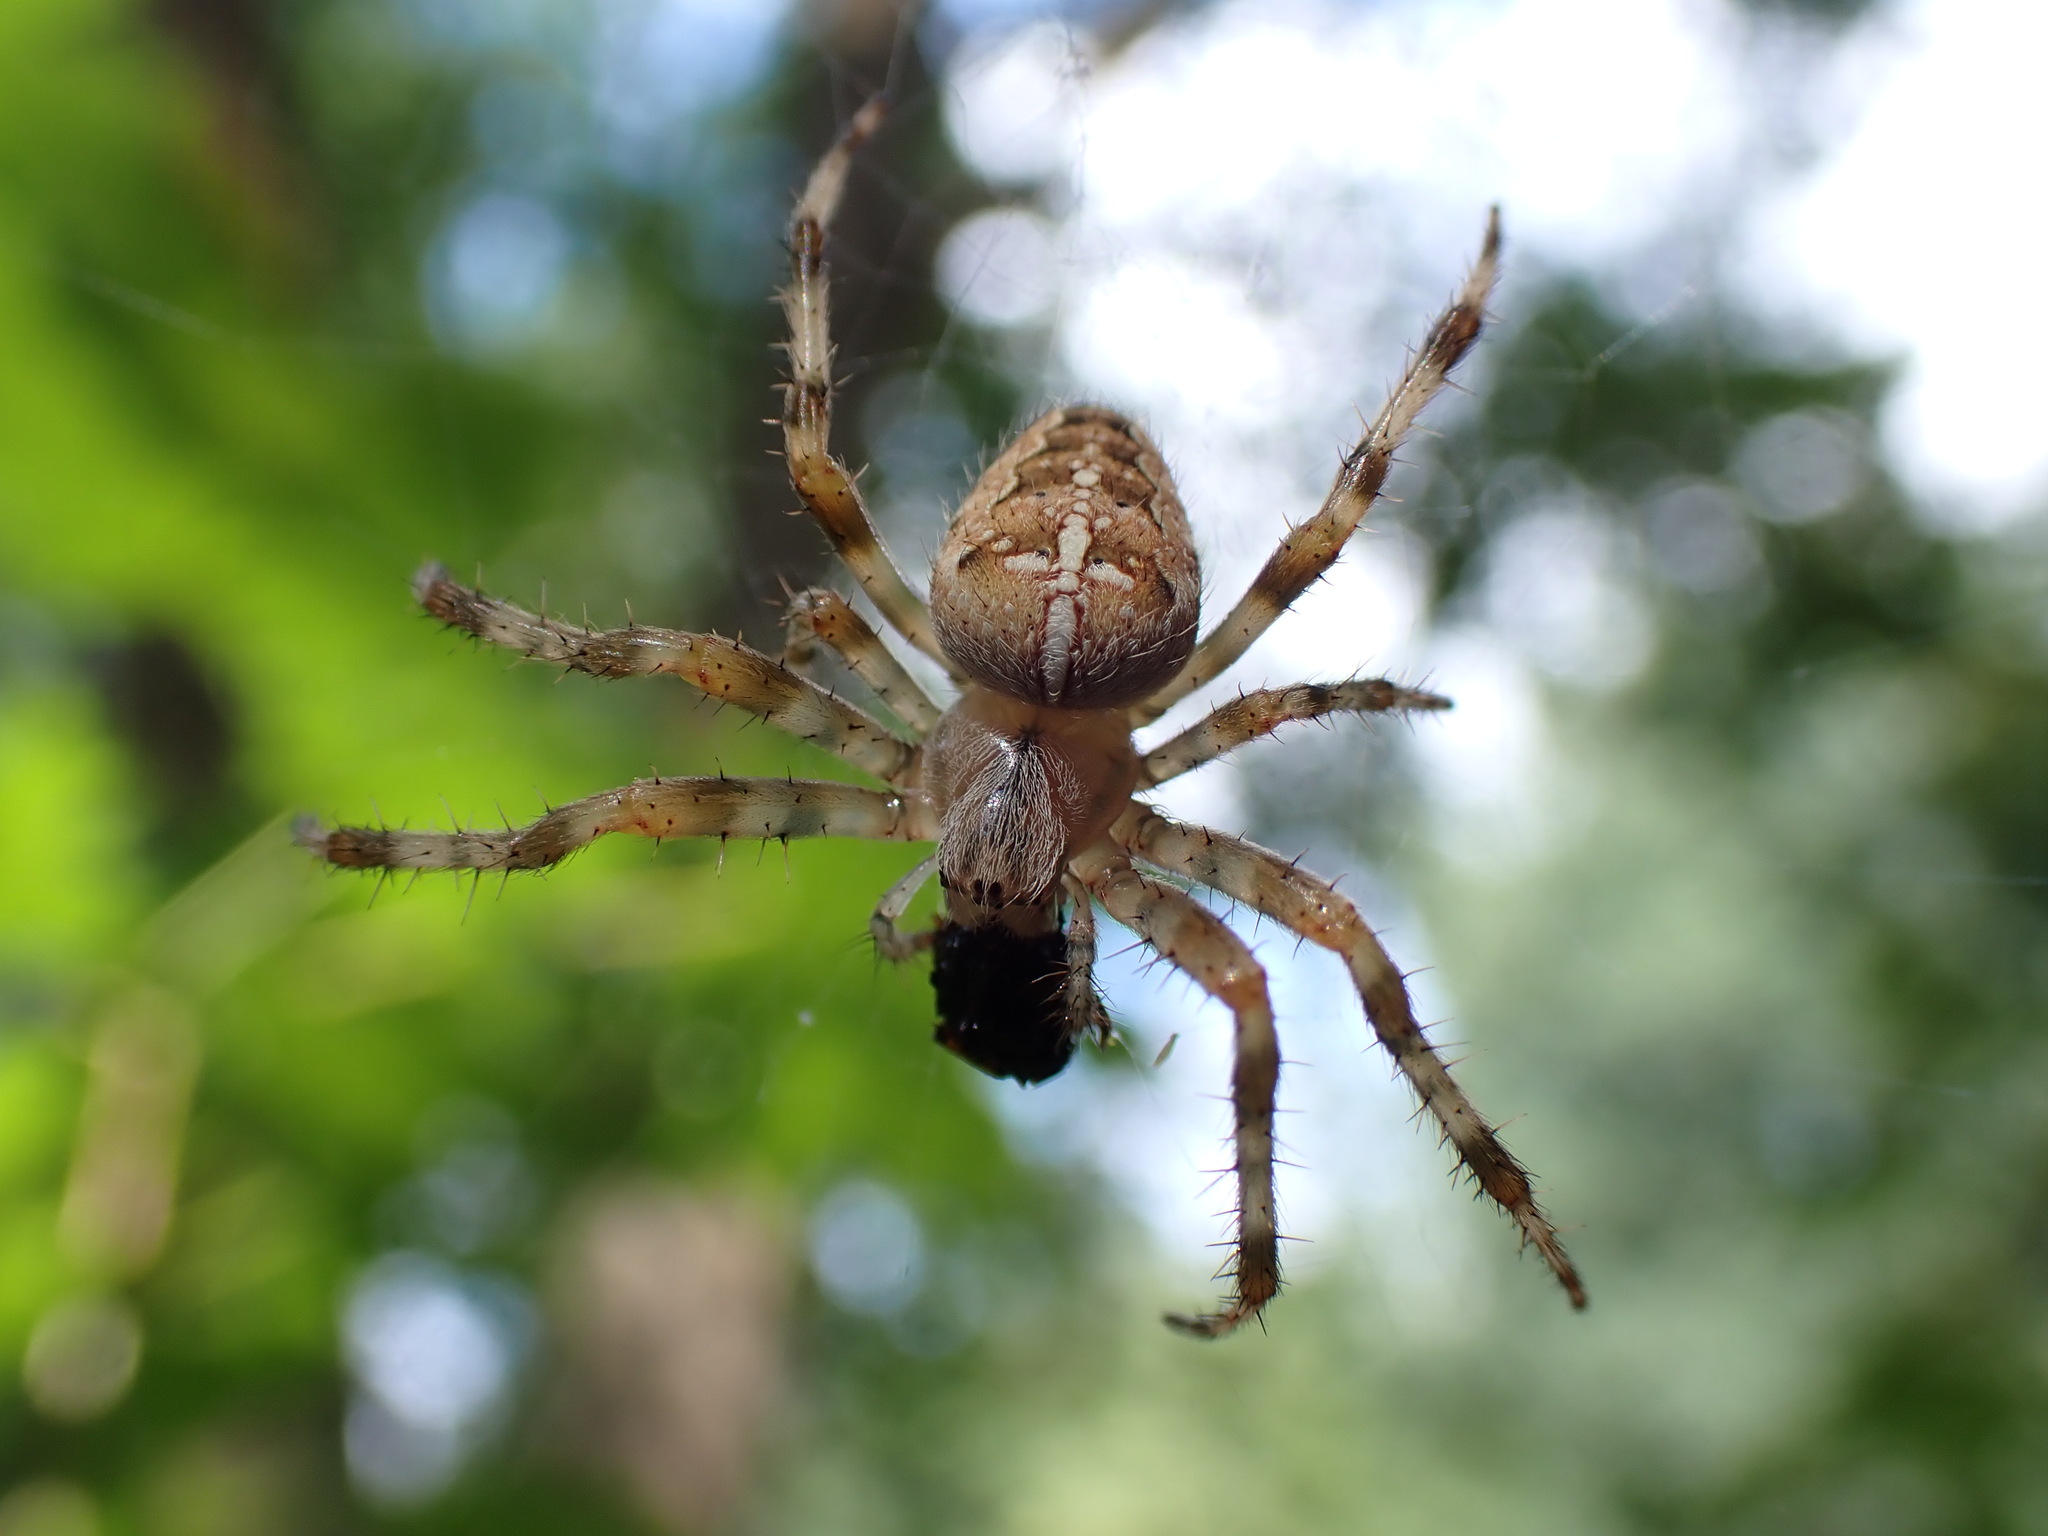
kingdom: Animalia
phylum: Arthropoda
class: Arachnida
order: Araneae
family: Araneidae
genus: Araneus
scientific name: Araneus diadematus
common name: Cross orbweaver
